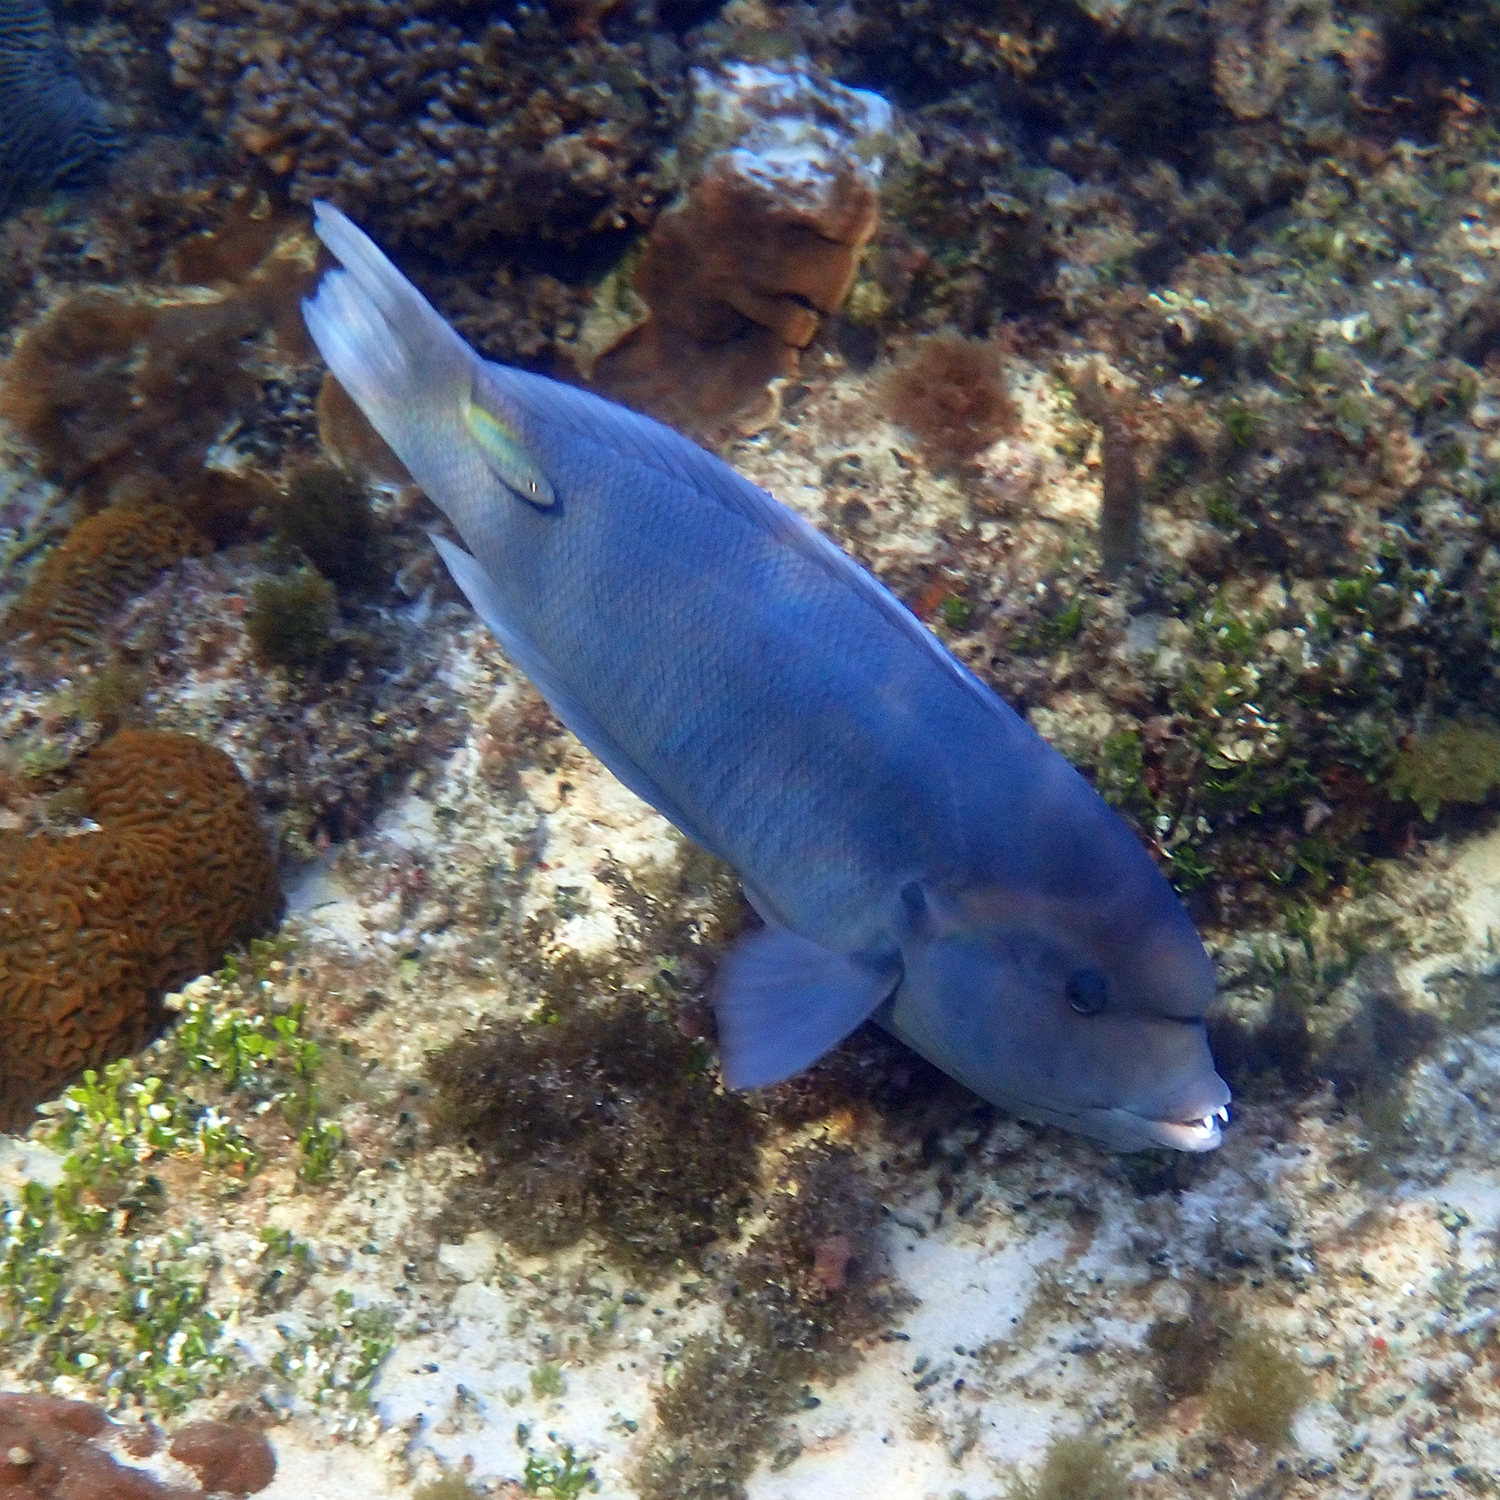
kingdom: Animalia
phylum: Chordata
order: Perciformes
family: Labridae
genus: Coris
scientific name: Coris bulbifrons
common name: Doubleheader
